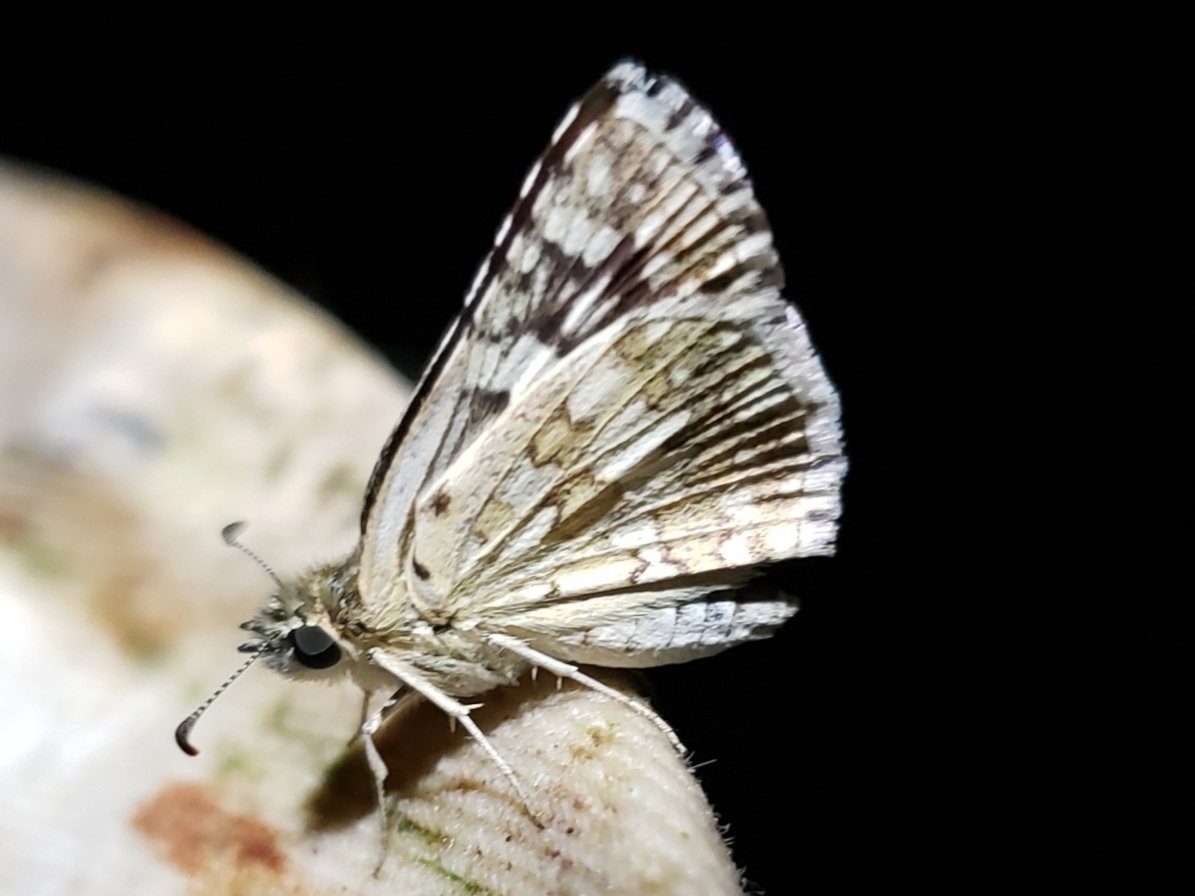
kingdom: Animalia
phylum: Arthropoda
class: Insecta
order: Lepidoptera
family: Hesperiidae
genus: Burnsius
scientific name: Burnsius albezens
